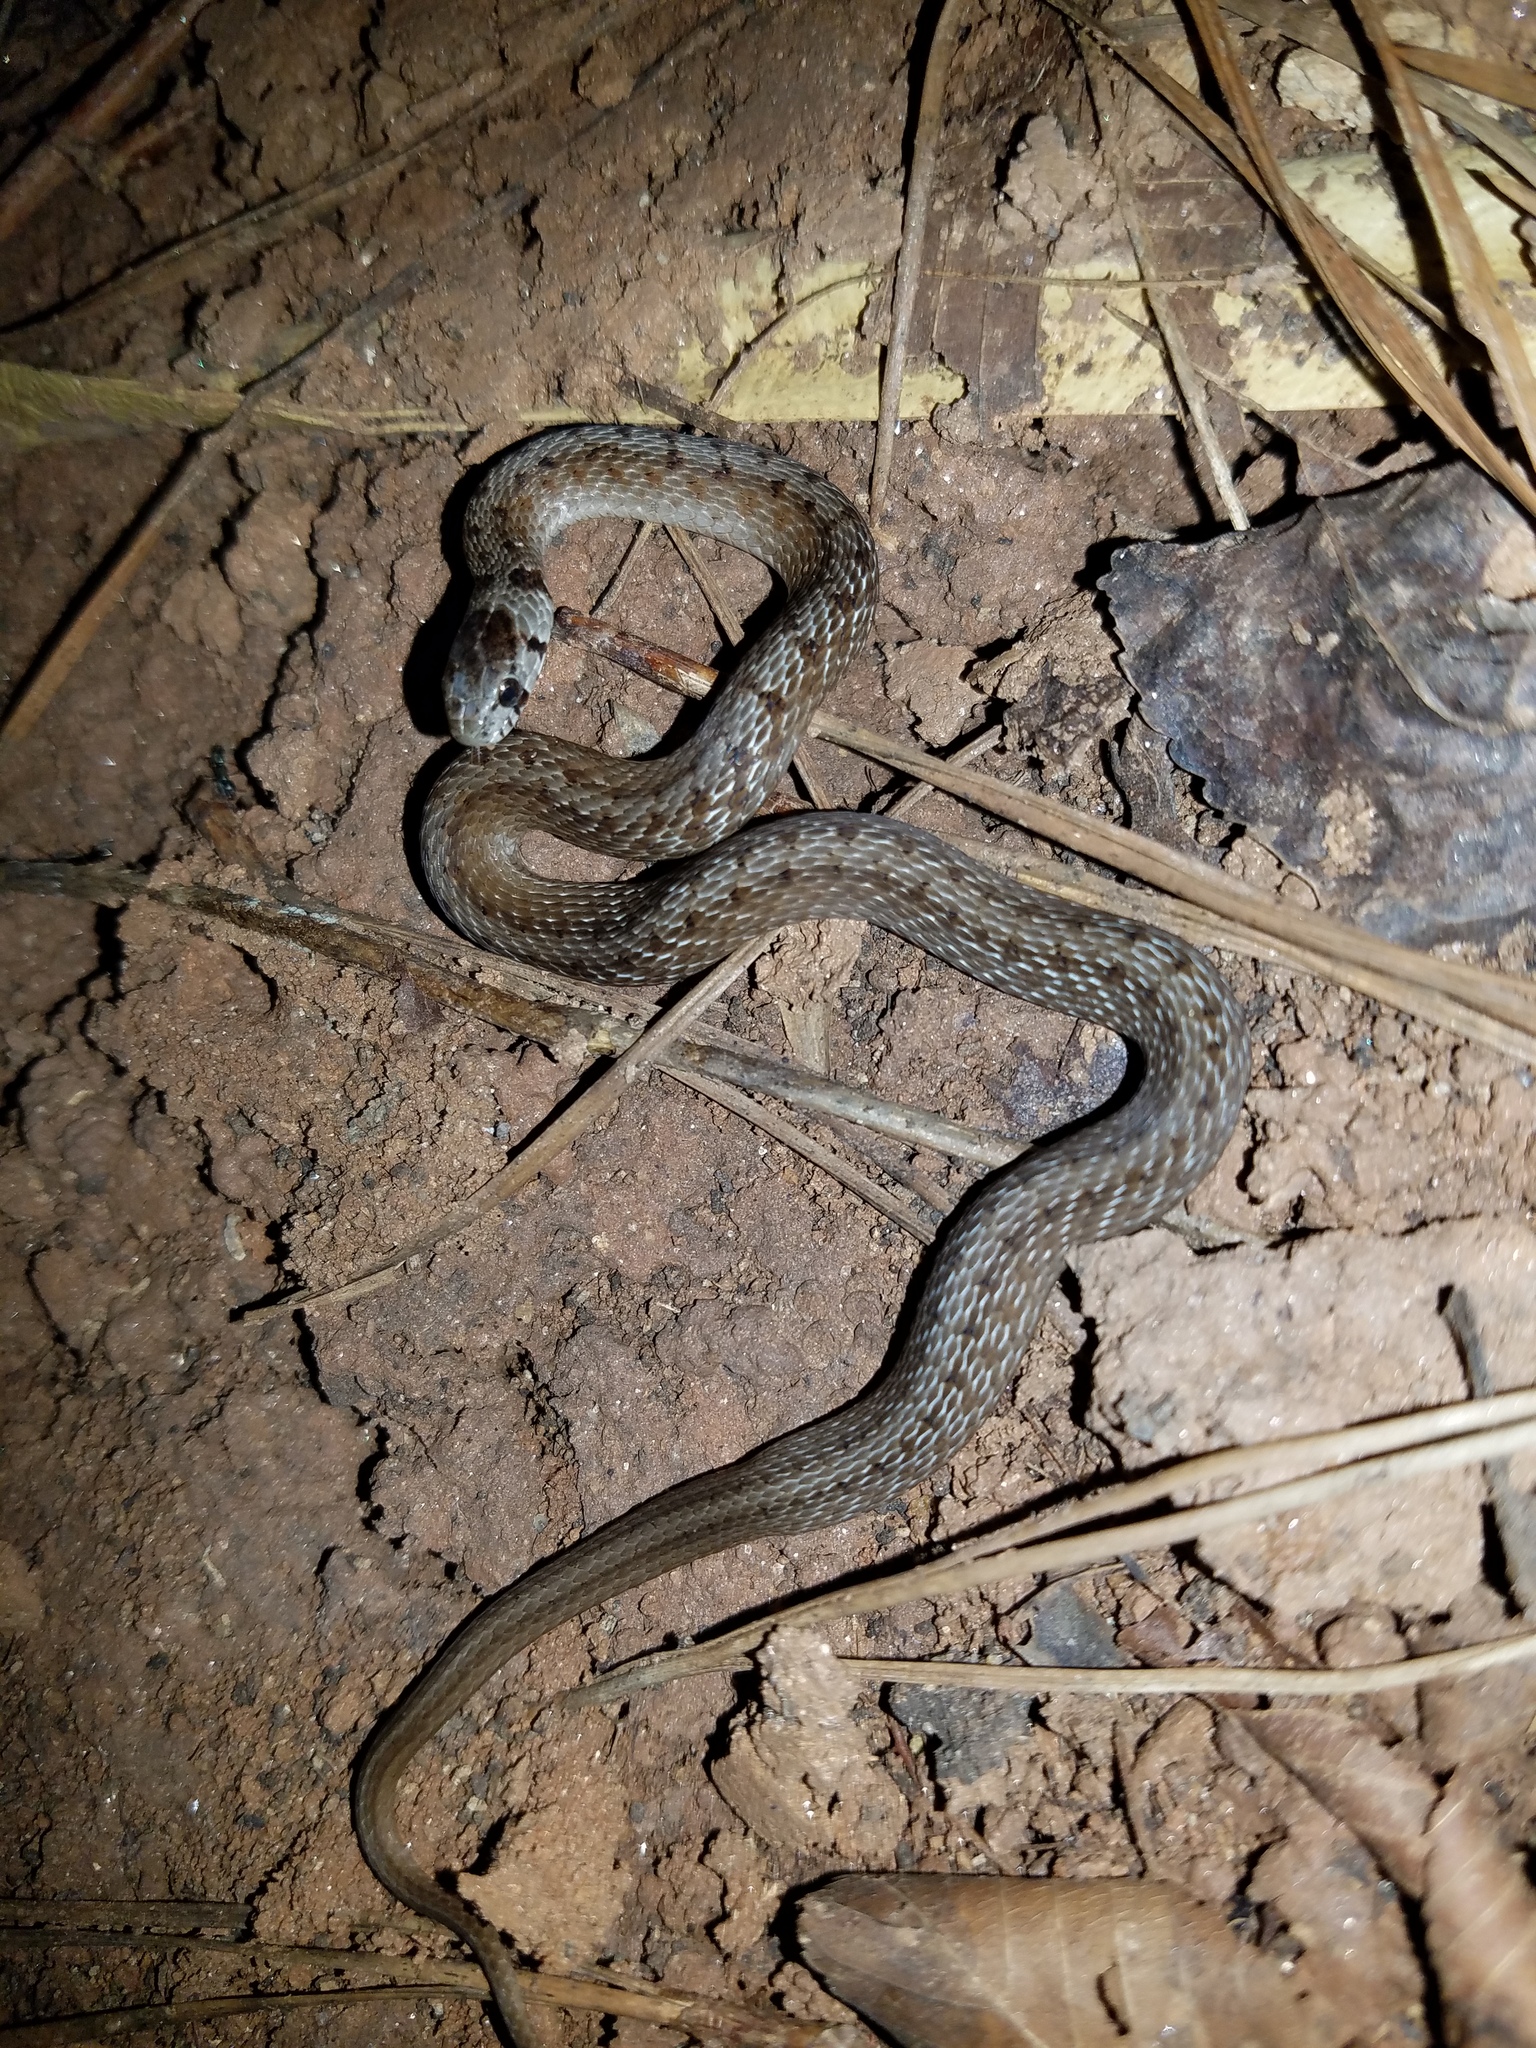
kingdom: Animalia
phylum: Chordata
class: Squamata
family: Colubridae
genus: Storeria
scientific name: Storeria dekayi
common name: (dekay’s) brown snake
